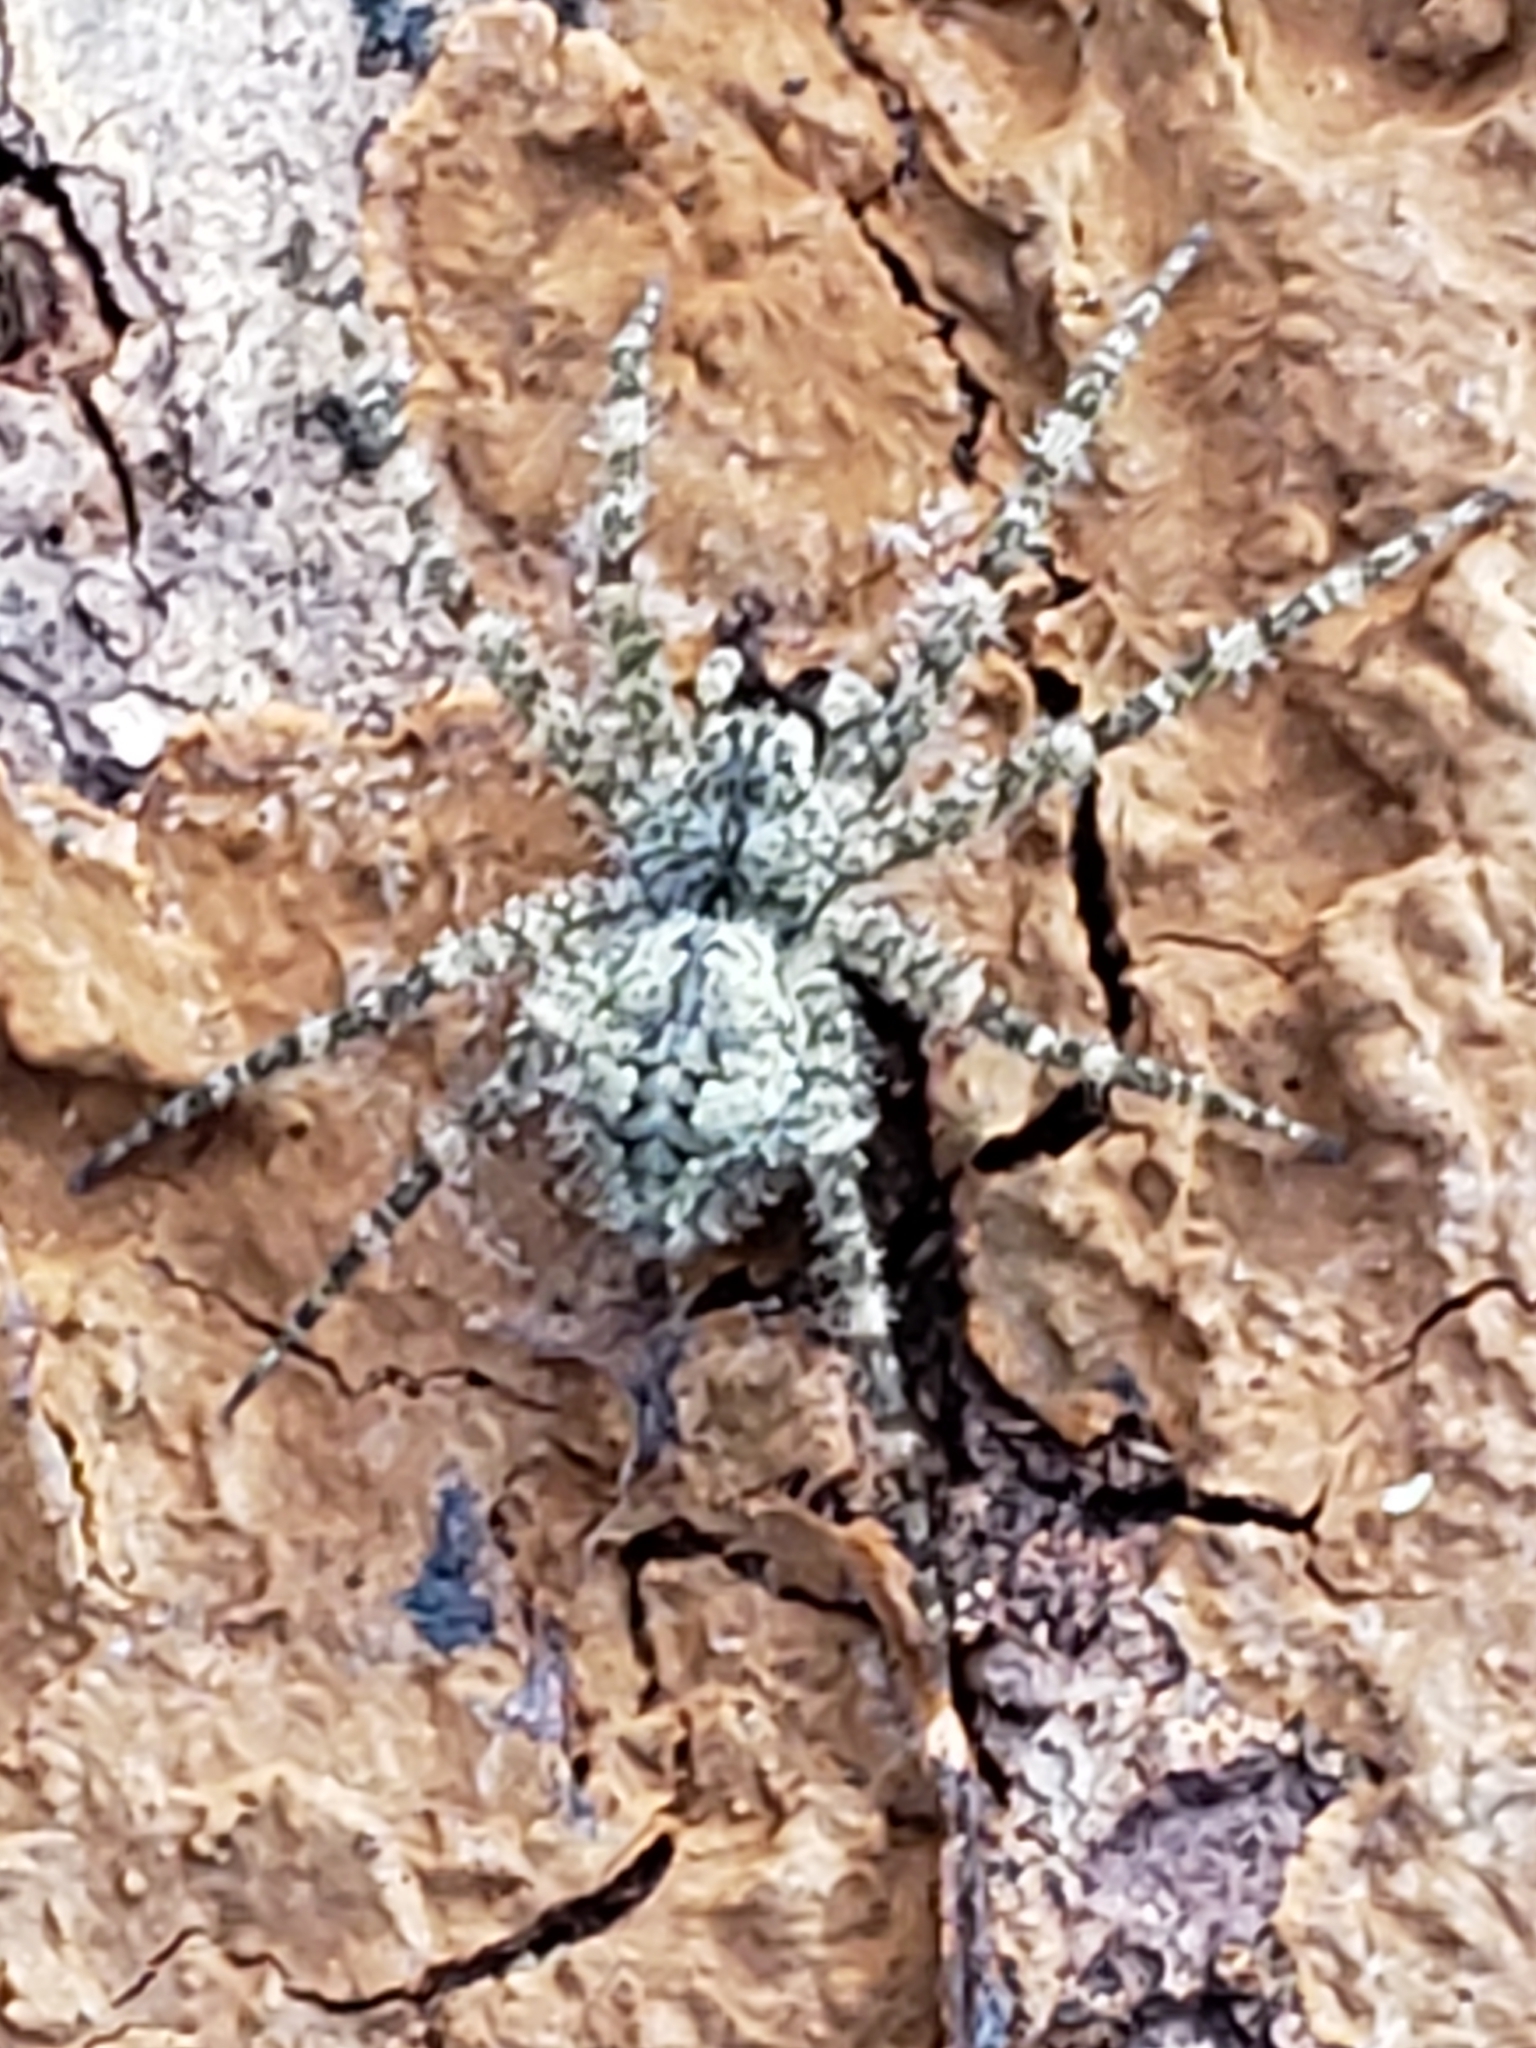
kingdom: Animalia
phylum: Arthropoda
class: Arachnida
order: Araneae
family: Pisauridae
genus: Dolomedes
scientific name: Dolomedes albineus
